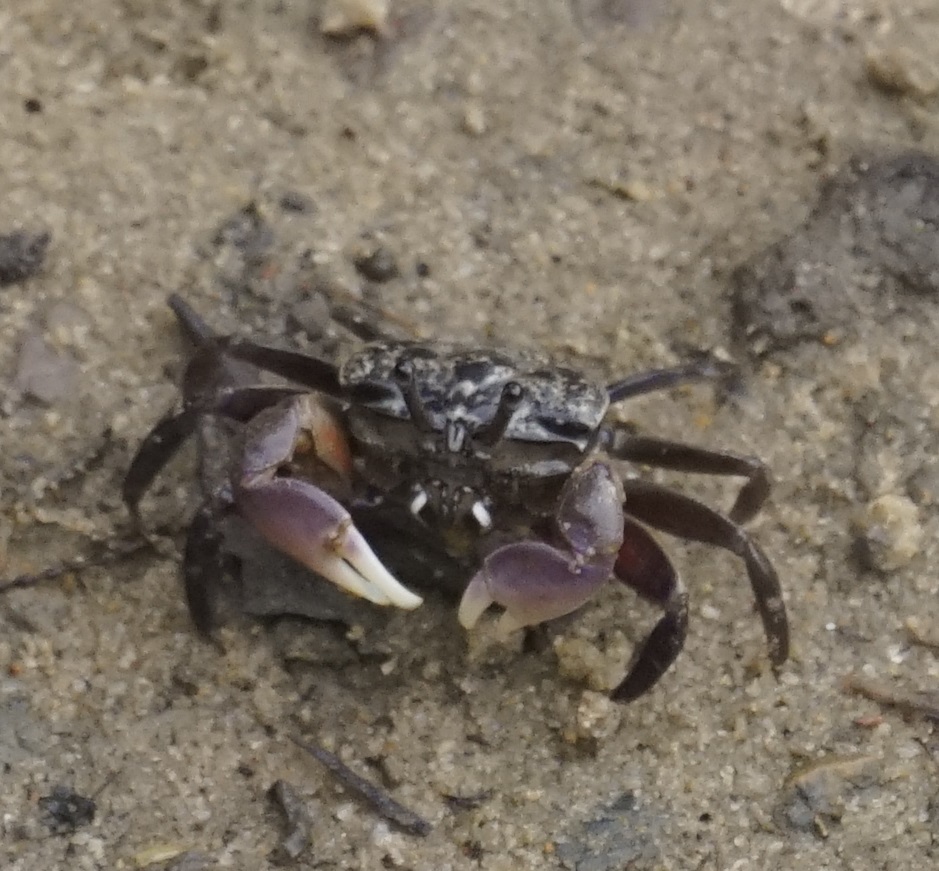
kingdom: Animalia
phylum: Arthropoda
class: Malacostraca
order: Decapoda
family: Heloeciidae
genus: Heloecius
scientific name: Heloecius cordiformis
